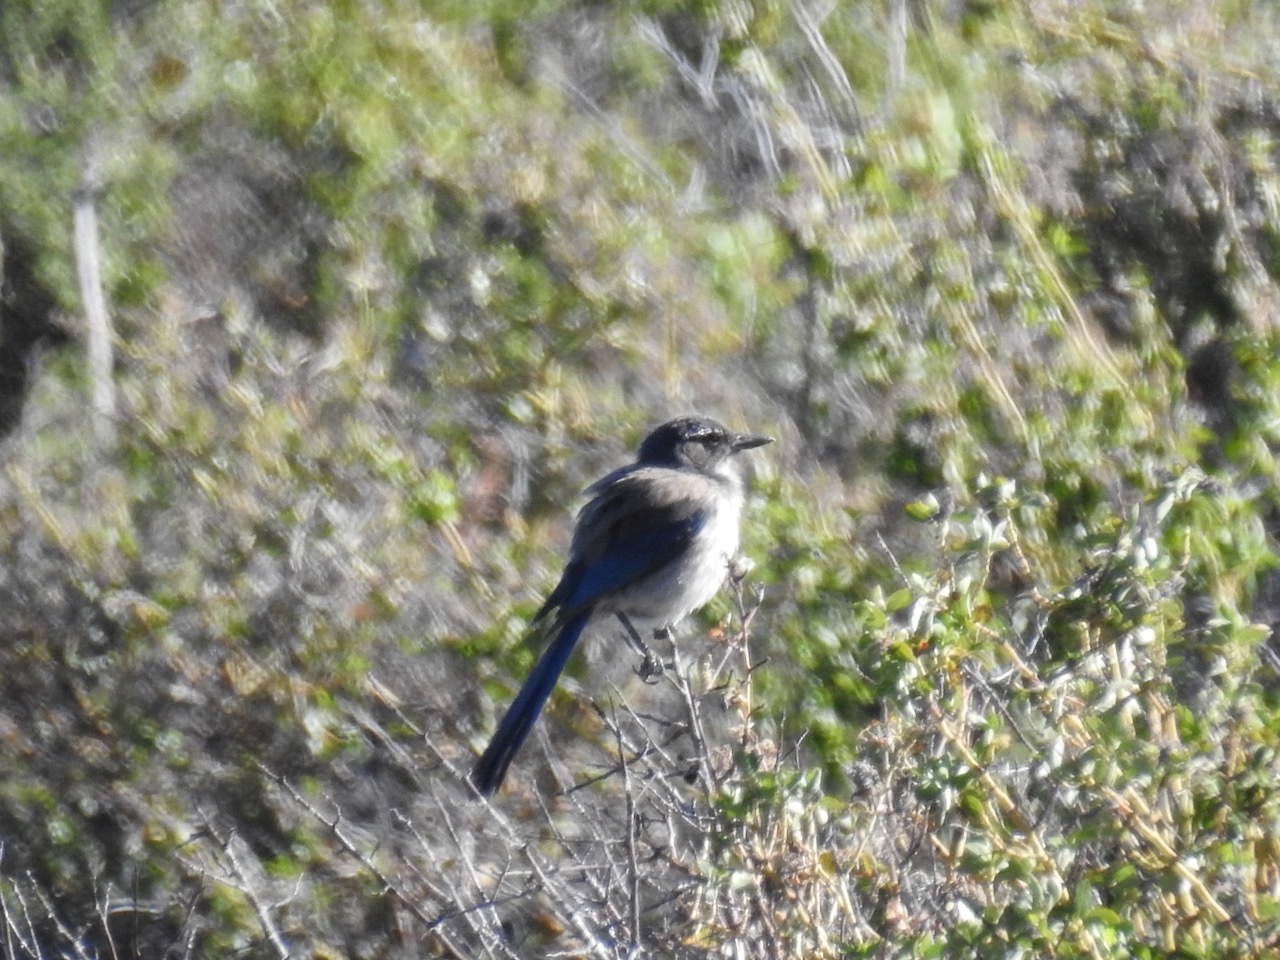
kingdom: Animalia
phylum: Chordata
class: Aves
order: Passeriformes
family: Corvidae
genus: Aphelocoma
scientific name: Aphelocoma californica
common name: California scrub-jay
